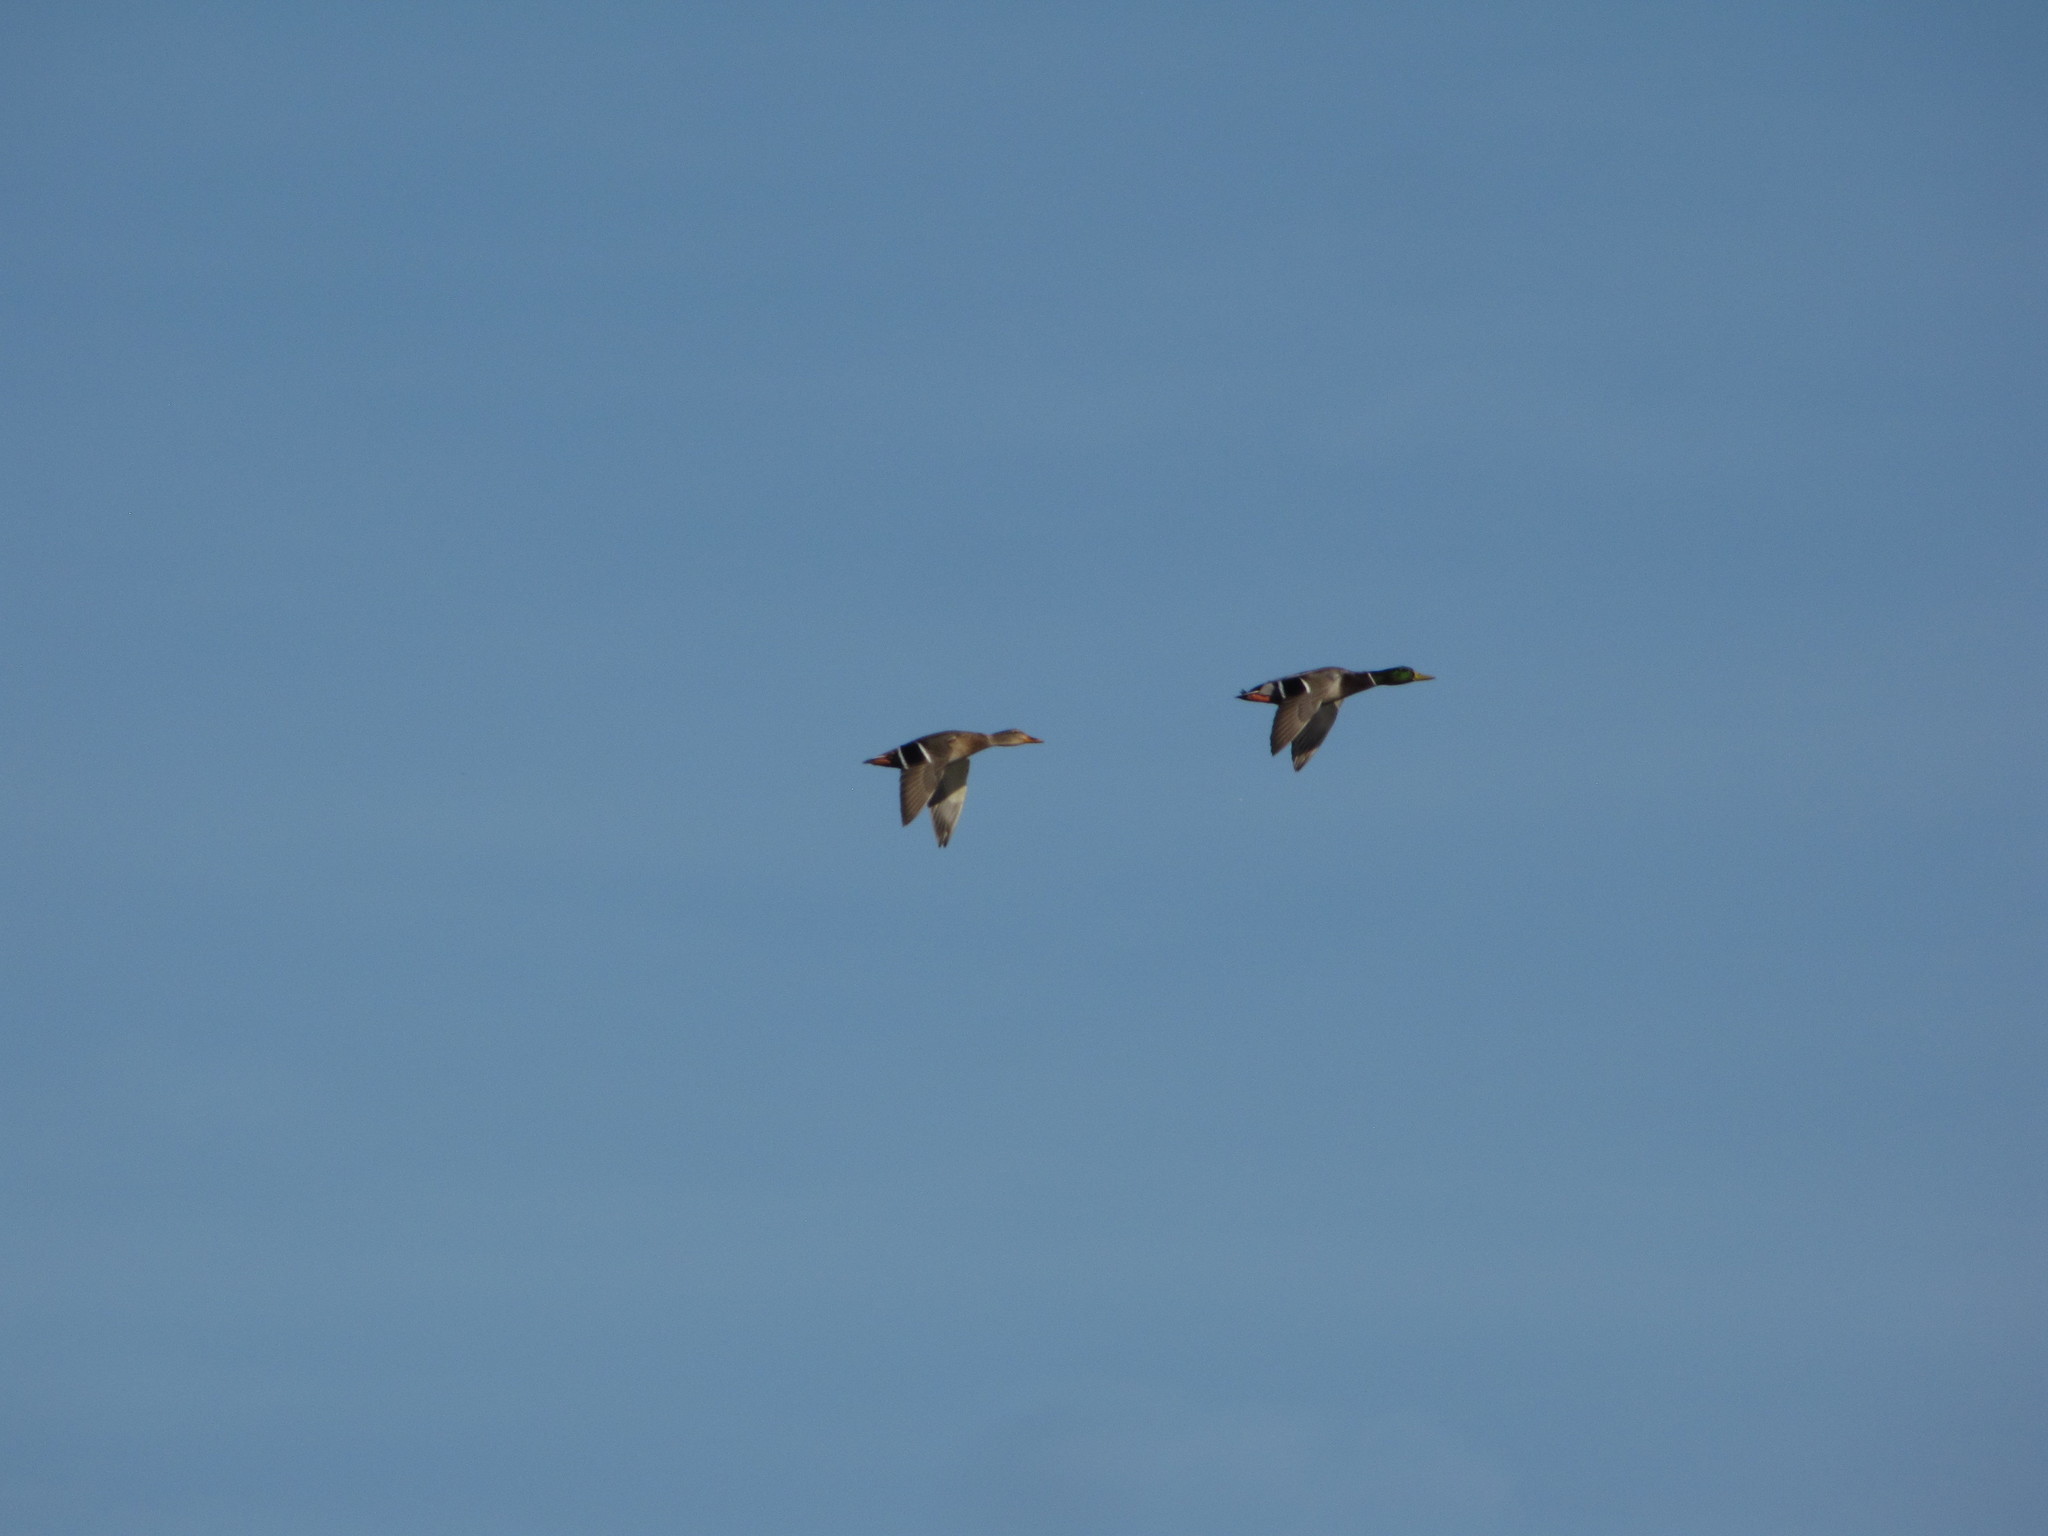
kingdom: Animalia
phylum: Chordata
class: Aves
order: Anseriformes
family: Anatidae
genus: Anas
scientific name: Anas platyrhynchos
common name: Mallard
